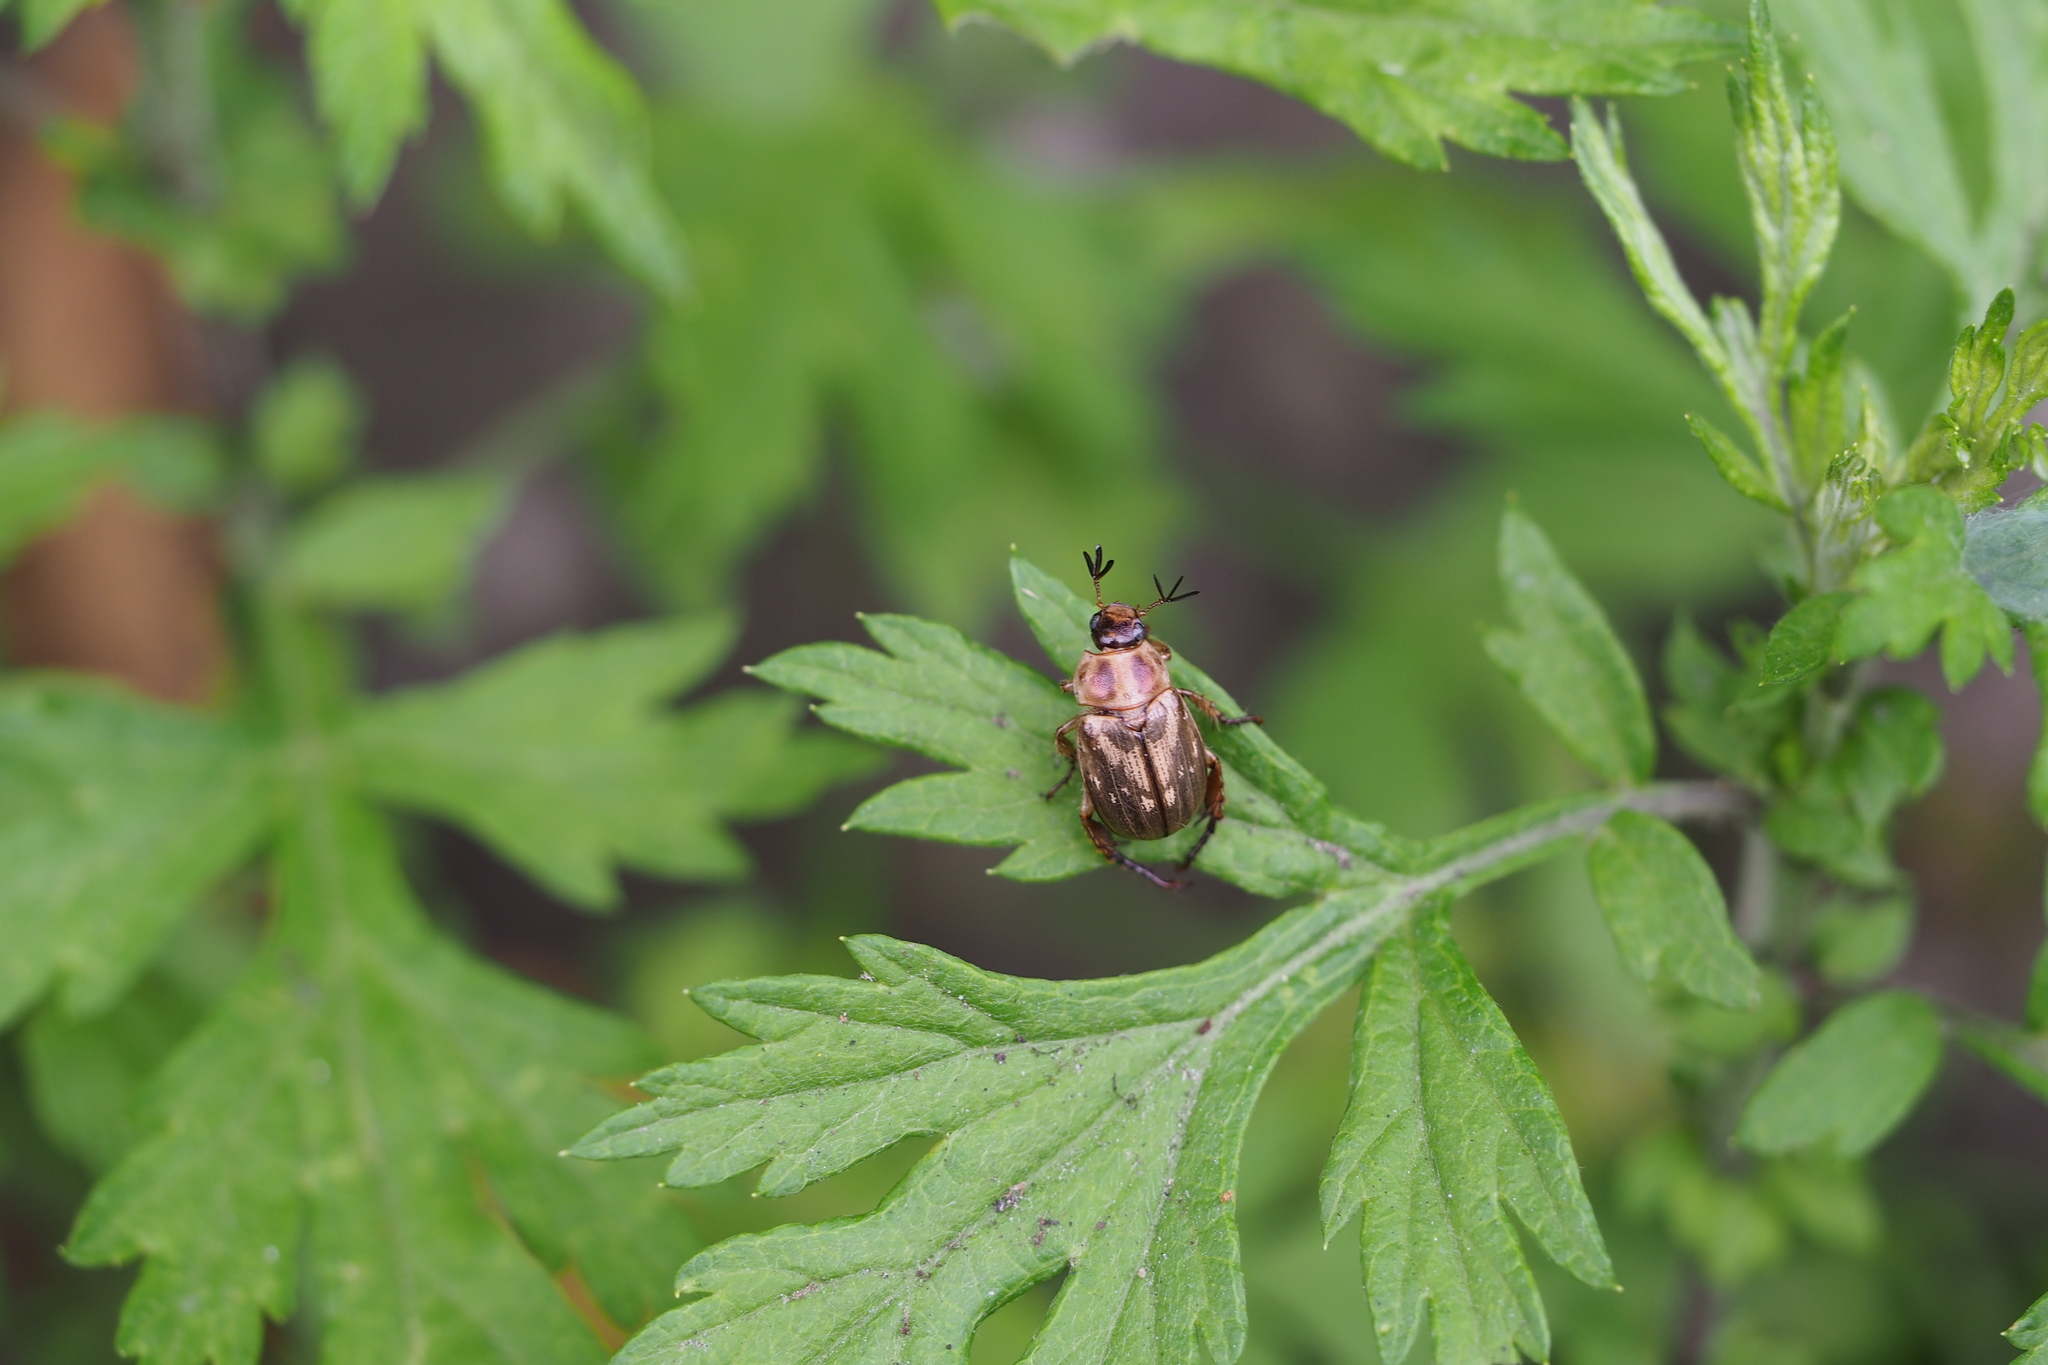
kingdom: Animalia
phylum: Arthropoda
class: Insecta
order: Coleoptera
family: Scarabaeidae
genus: Exomala
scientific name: Exomala orientalis
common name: Oriental beetle
